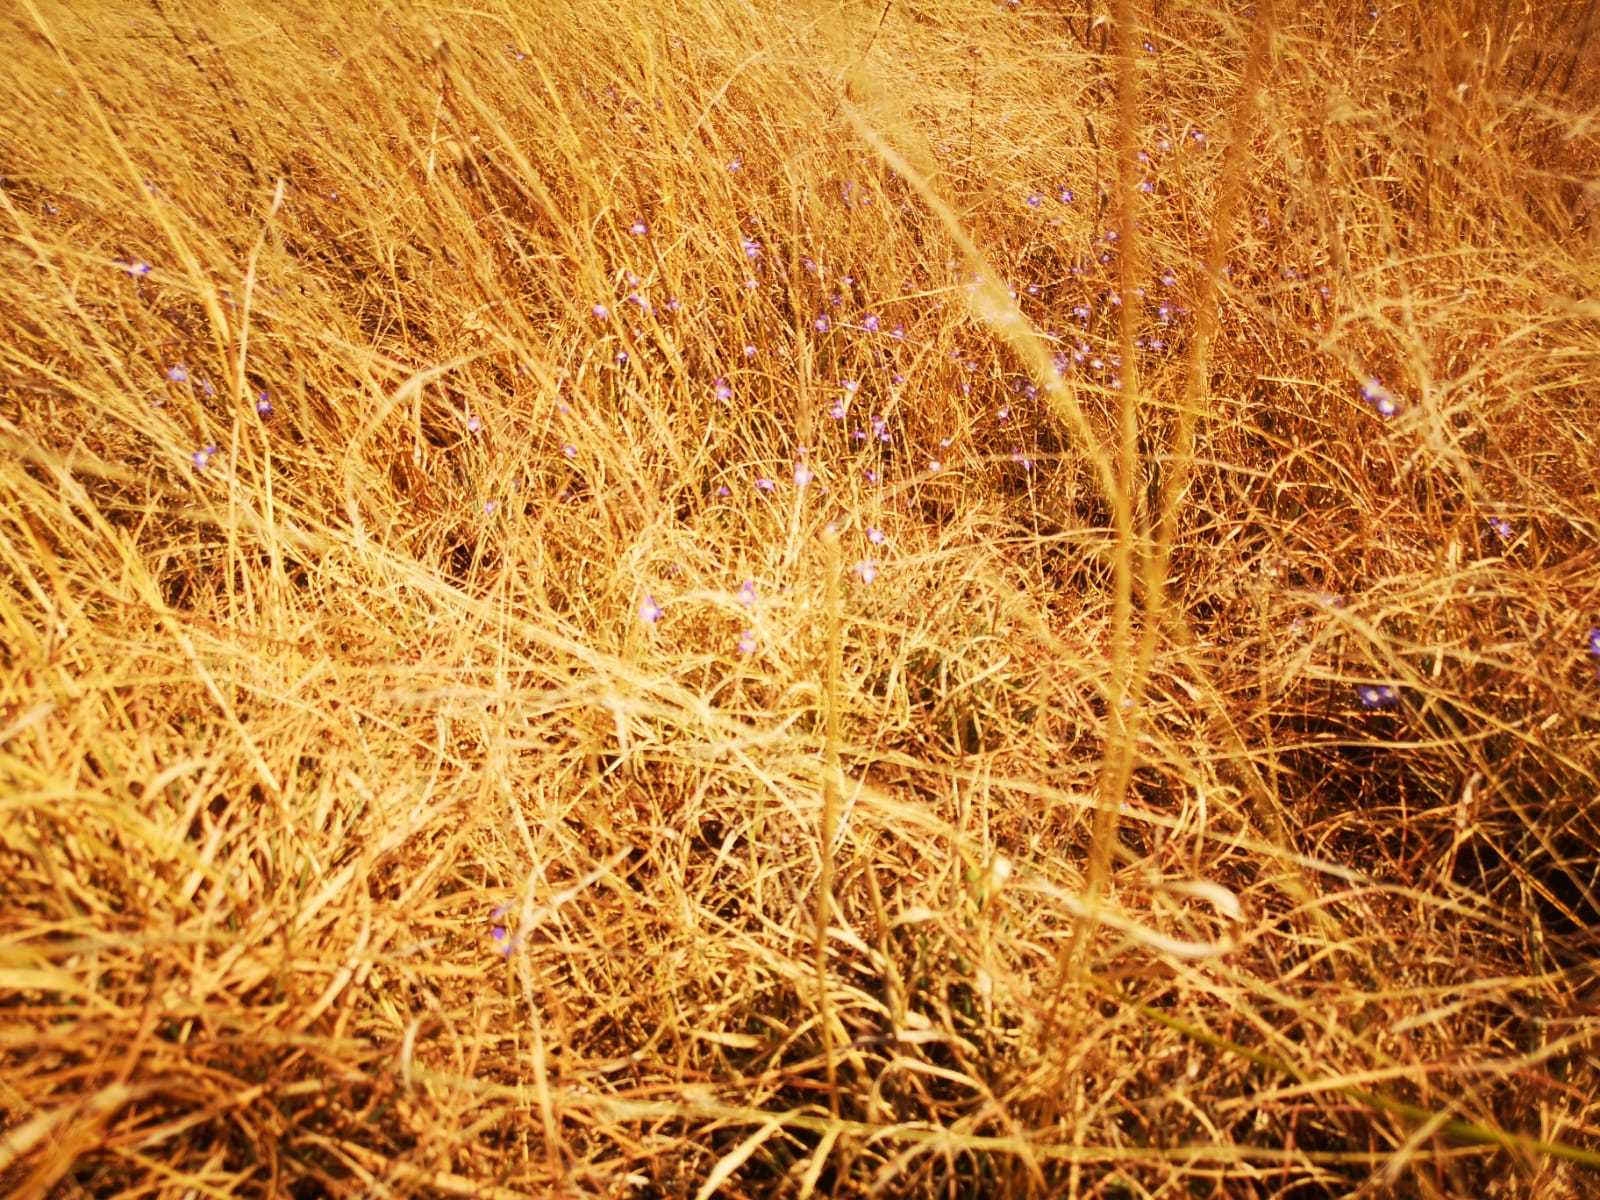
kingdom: Plantae
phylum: Tracheophyta
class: Magnoliopsida
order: Asterales
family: Campanulaceae
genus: Lobelia
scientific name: Lobelia erinus
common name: Edging lobelia
